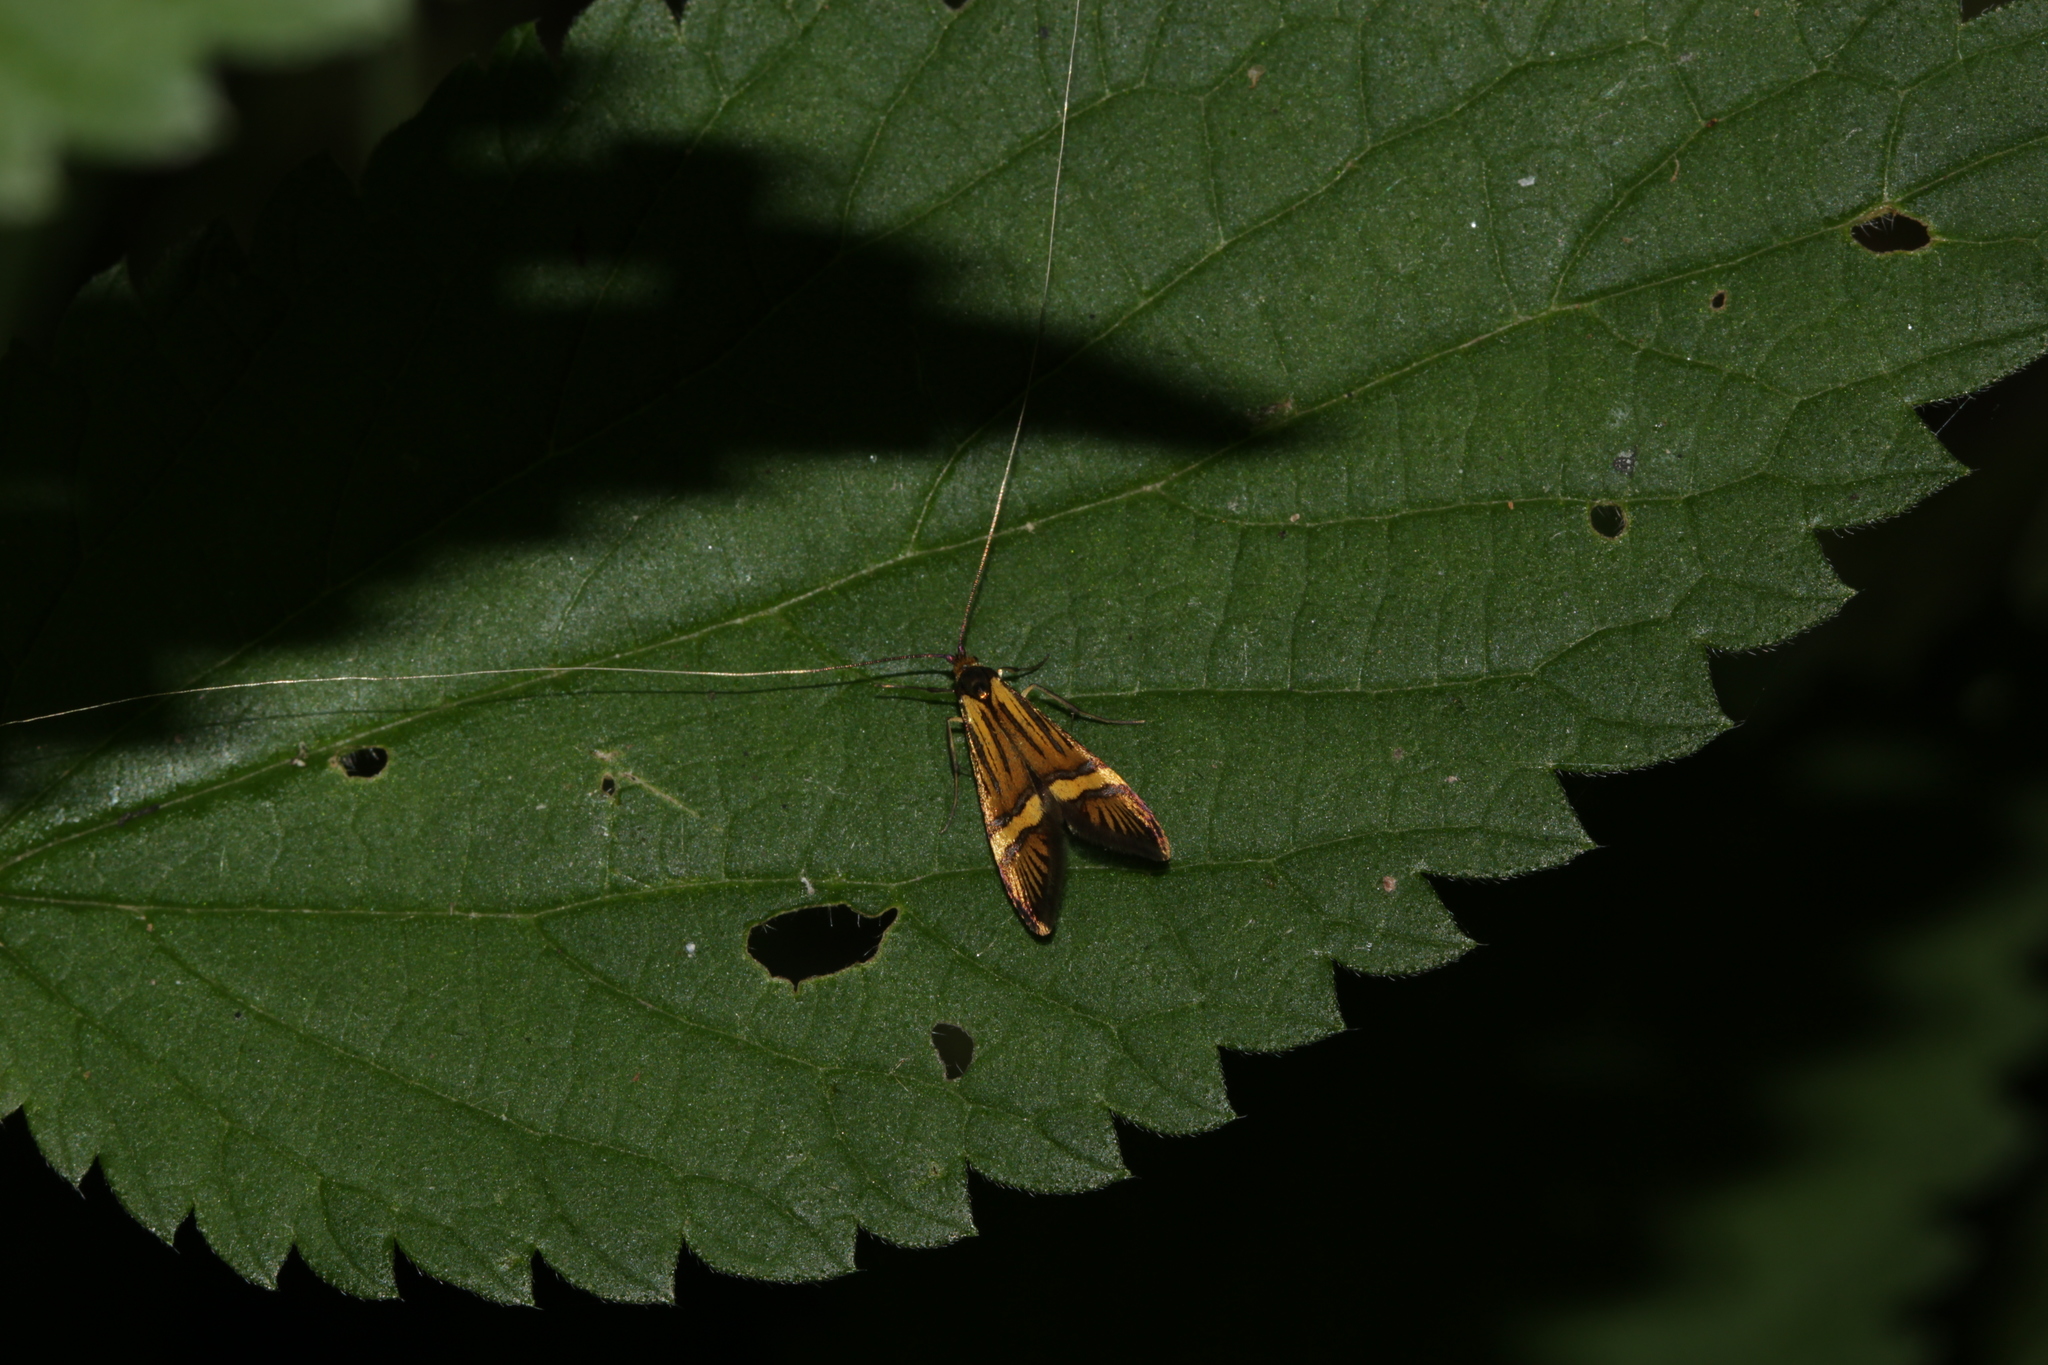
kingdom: Animalia
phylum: Arthropoda
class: Insecta
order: Lepidoptera
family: Adelidae
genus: Nemophora
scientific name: Nemophora
